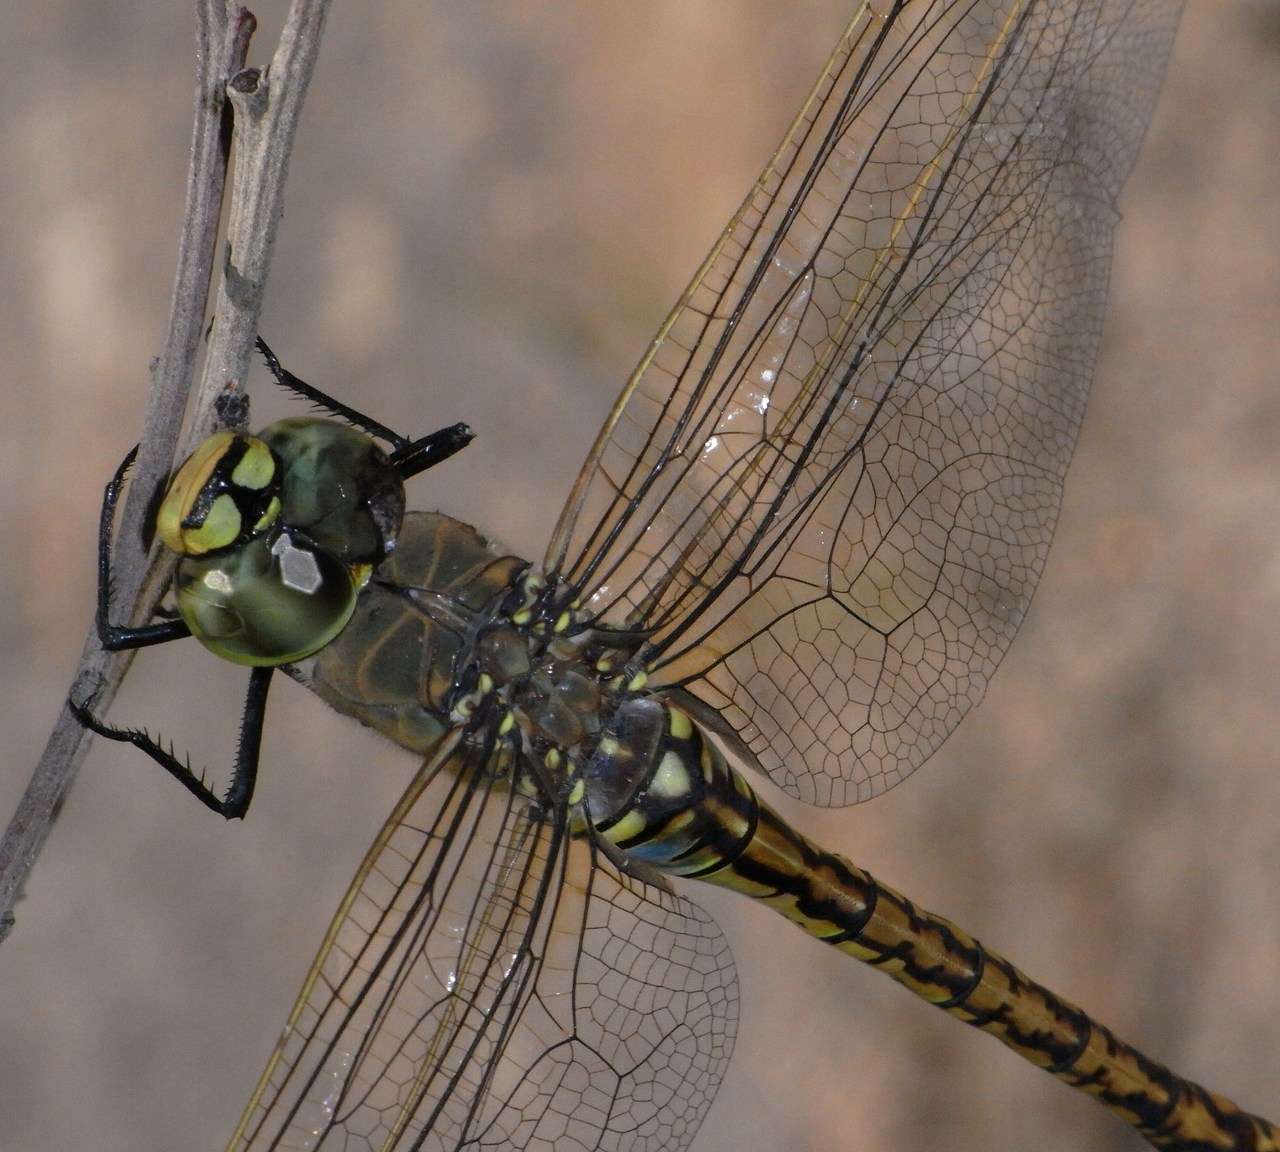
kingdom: Animalia
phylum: Arthropoda
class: Insecta
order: Odonata
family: Aeshnidae
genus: Anax
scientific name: Anax papuensis
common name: Australian emperor
